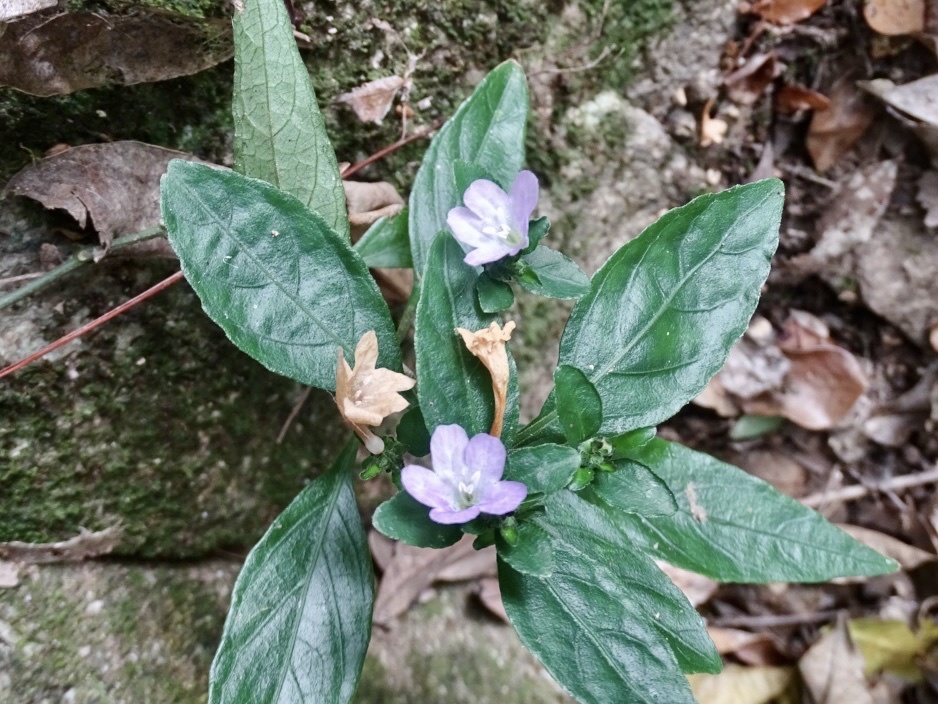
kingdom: Plantae
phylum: Tracheophyta
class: Magnoliopsida
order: Lamiales
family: Acanthaceae
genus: Strobilanthes
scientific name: Strobilanthes tetrasperma
